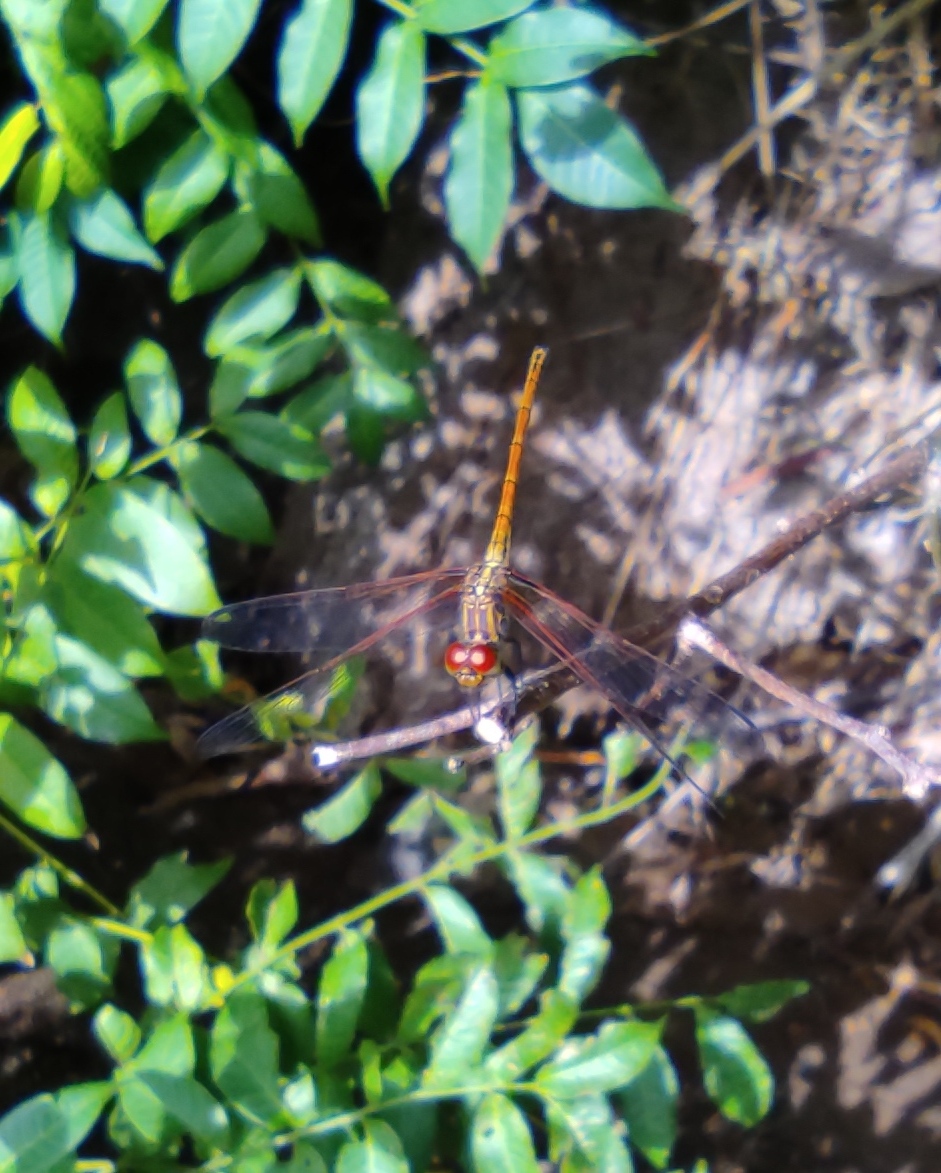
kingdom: Animalia
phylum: Arthropoda
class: Insecta
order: Odonata
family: Libellulidae
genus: Dythemis
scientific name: Dythemis rufinervis
